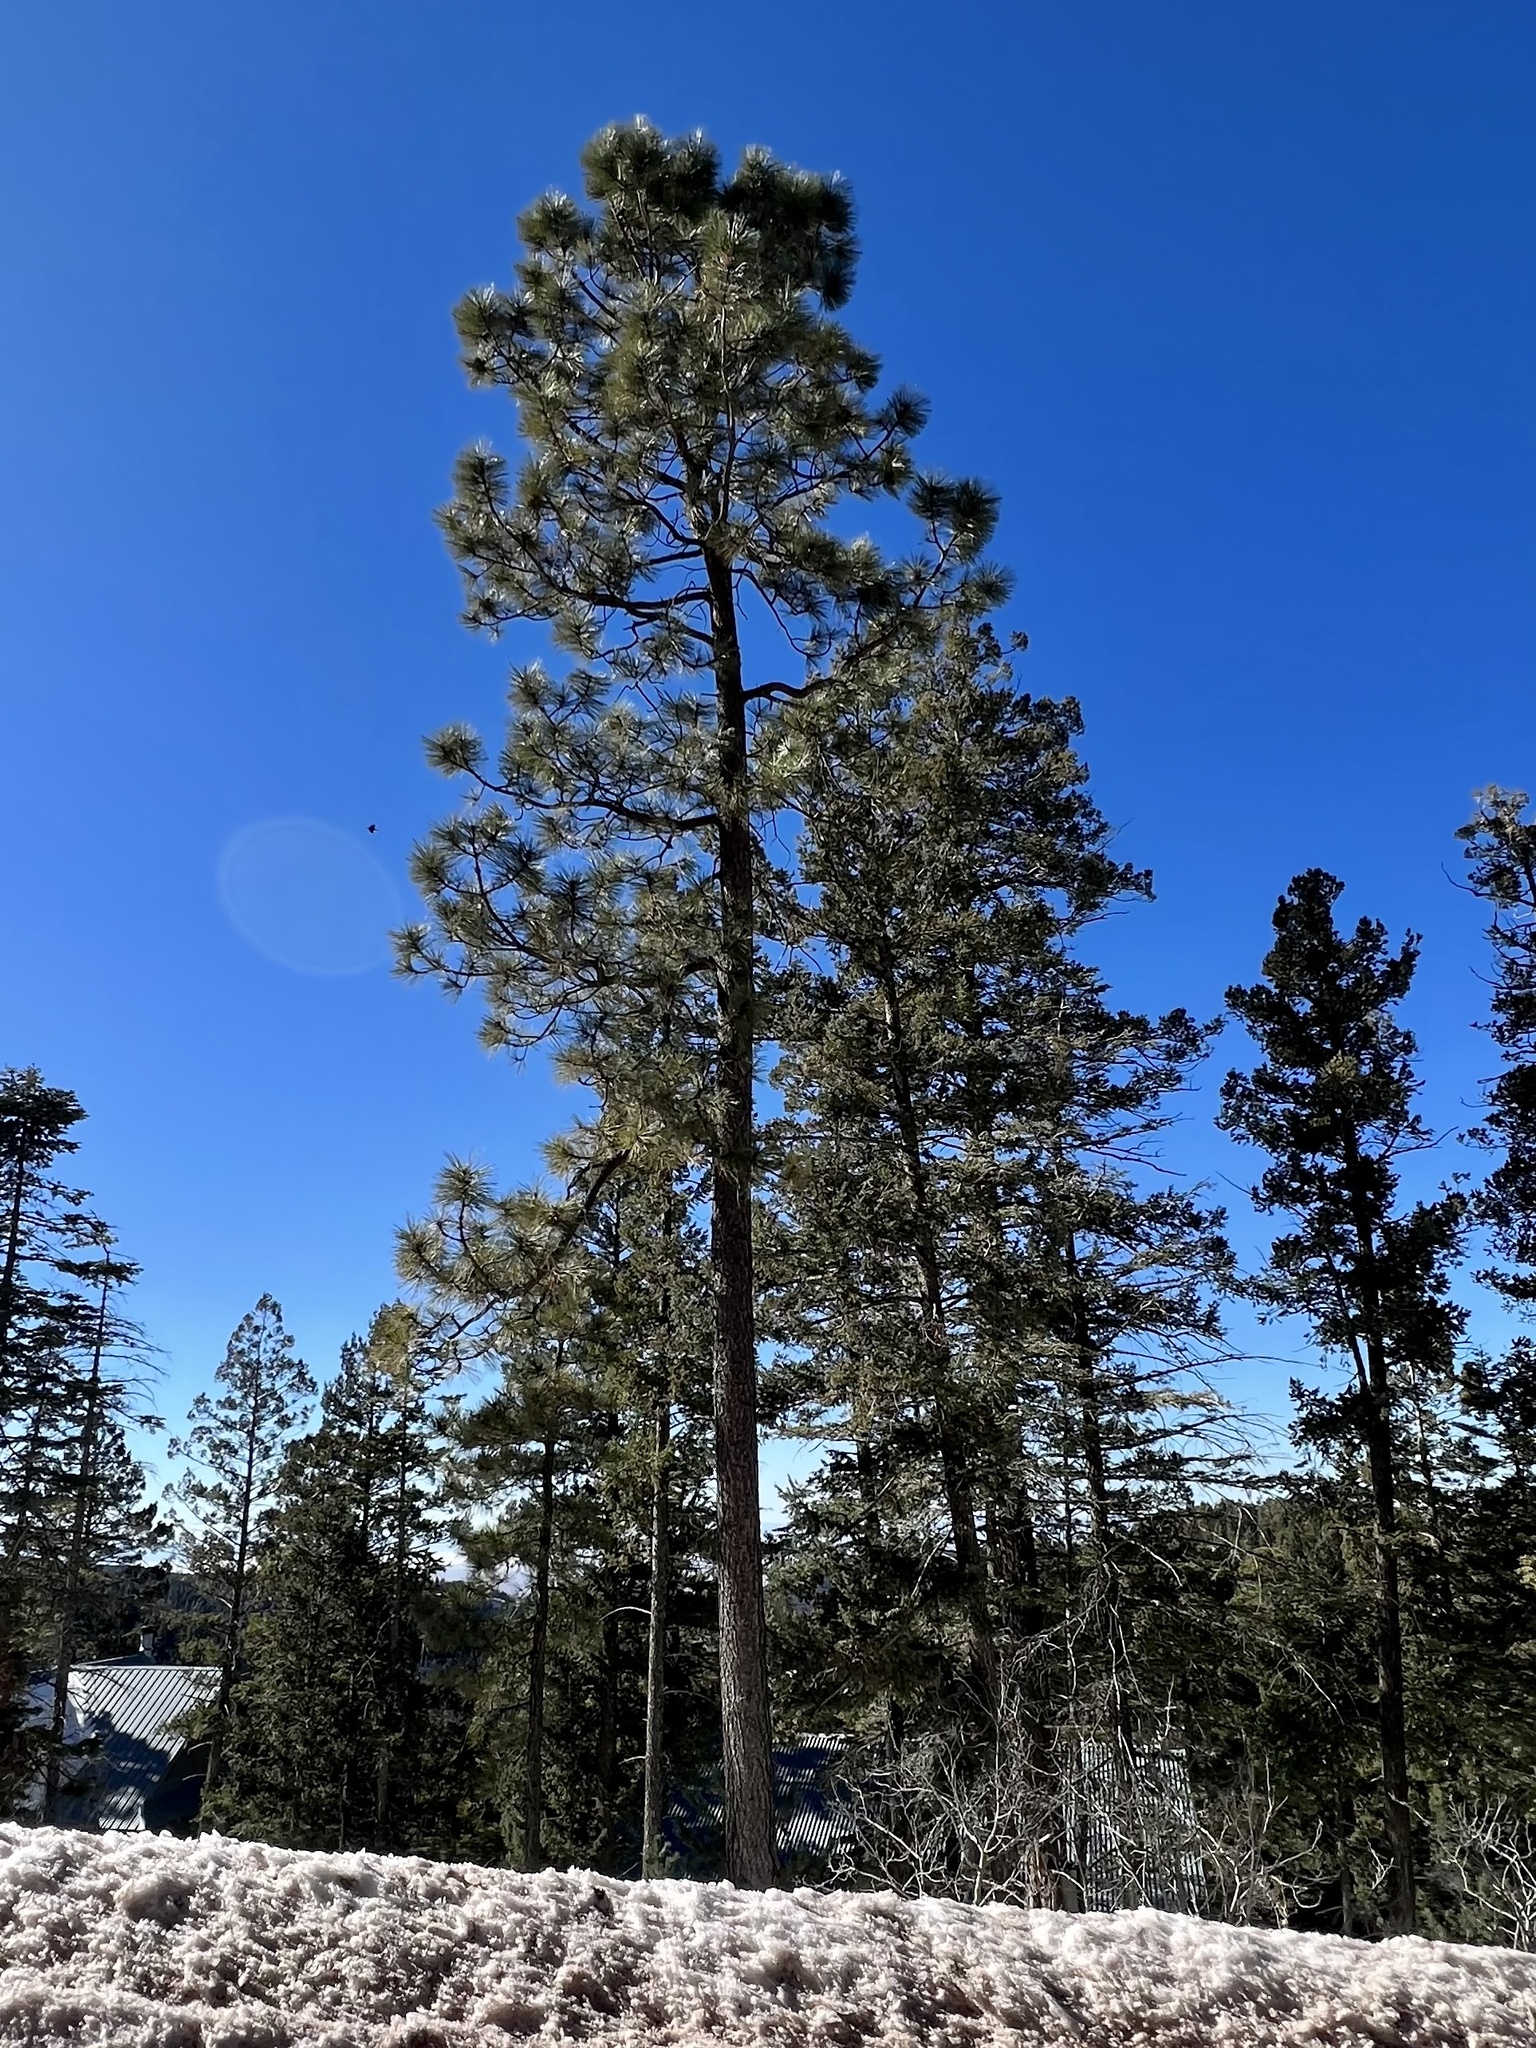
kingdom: Plantae
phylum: Tracheophyta
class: Pinopsida
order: Pinales
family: Pinaceae
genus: Pinus
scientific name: Pinus ponderosa
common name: Western yellow-pine
